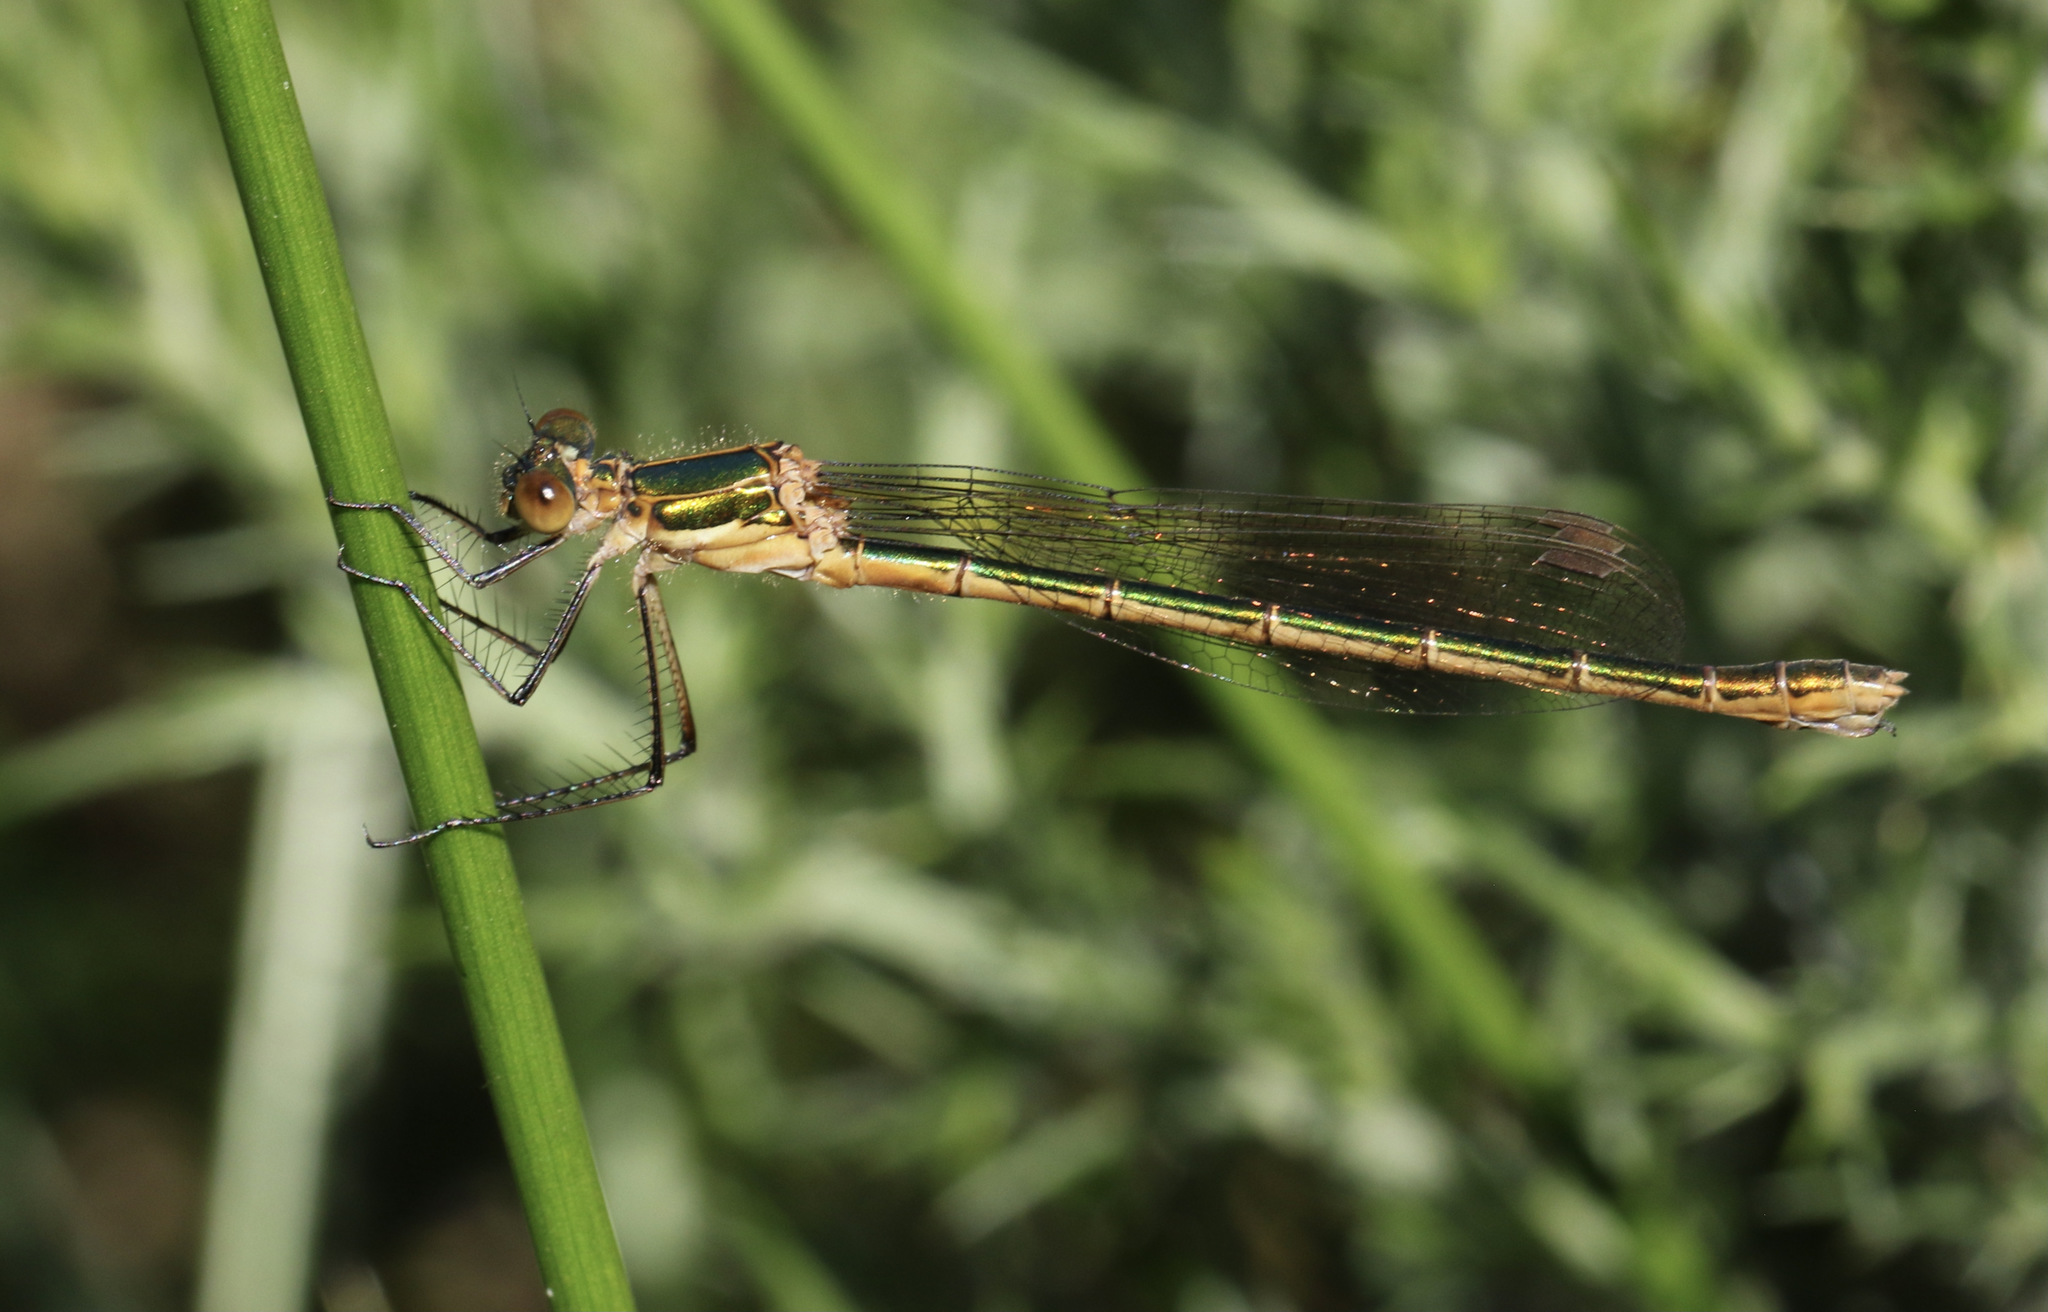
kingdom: Animalia
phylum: Arthropoda
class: Insecta
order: Odonata
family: Lestidae
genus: Lestes
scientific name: Lestes sponsa
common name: Common spreadwing
